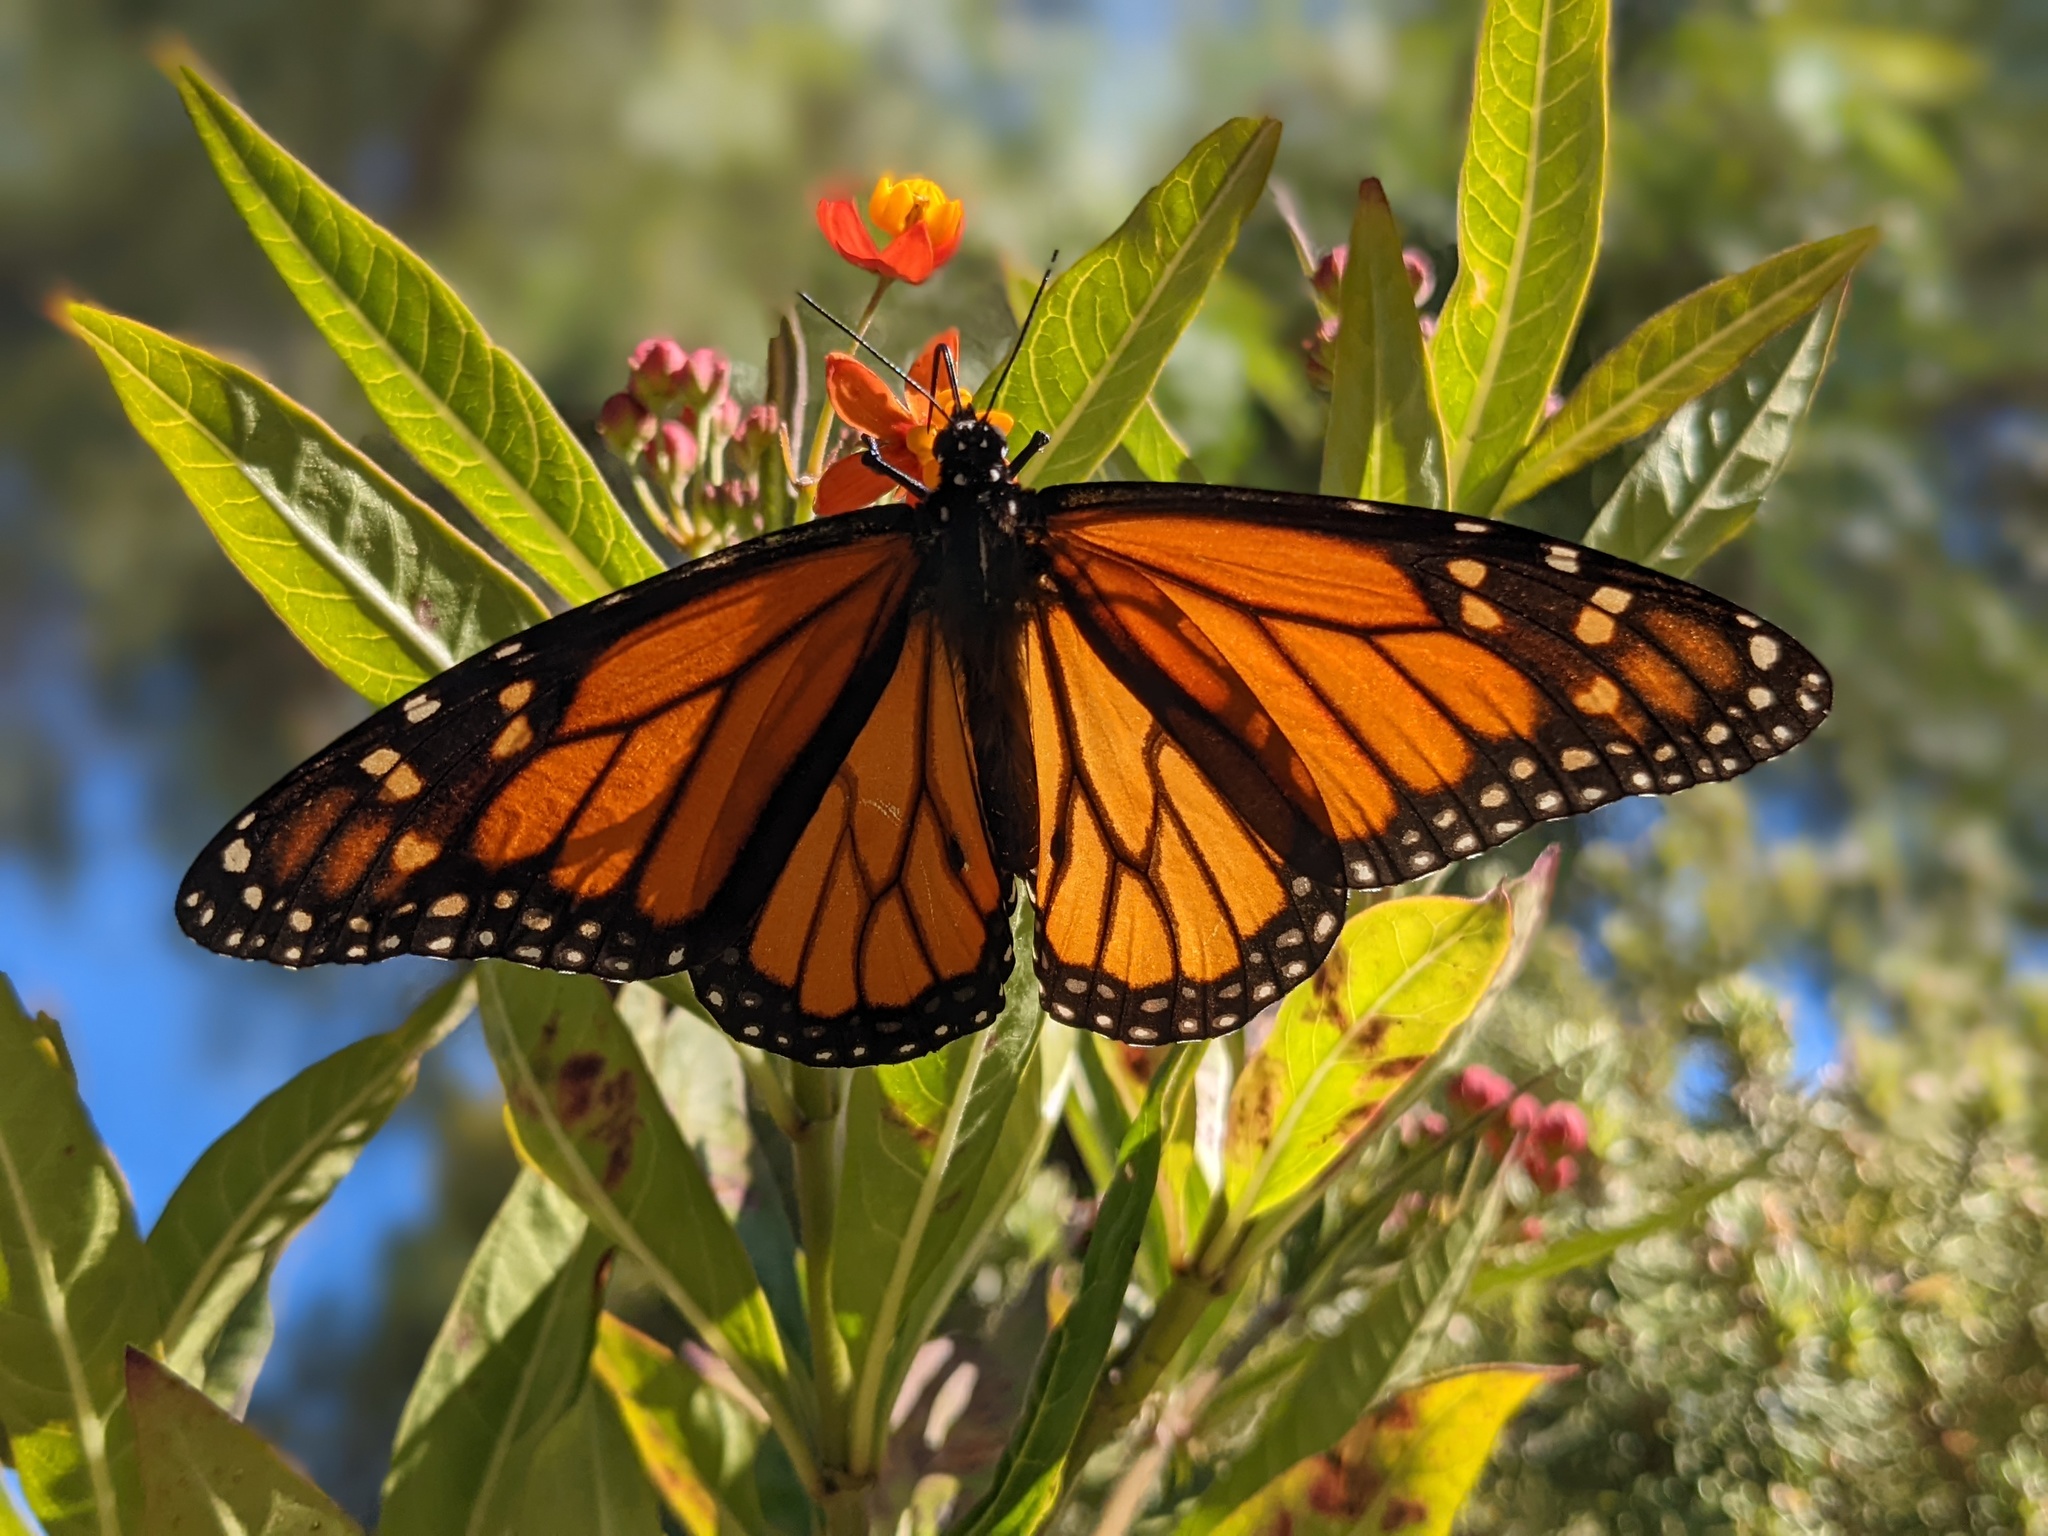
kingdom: Animalia
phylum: Arthropoda
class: Insecta
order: Lepidoptera
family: Nymphalidae
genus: Danaus
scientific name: Danaus plexippus
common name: Monarch
